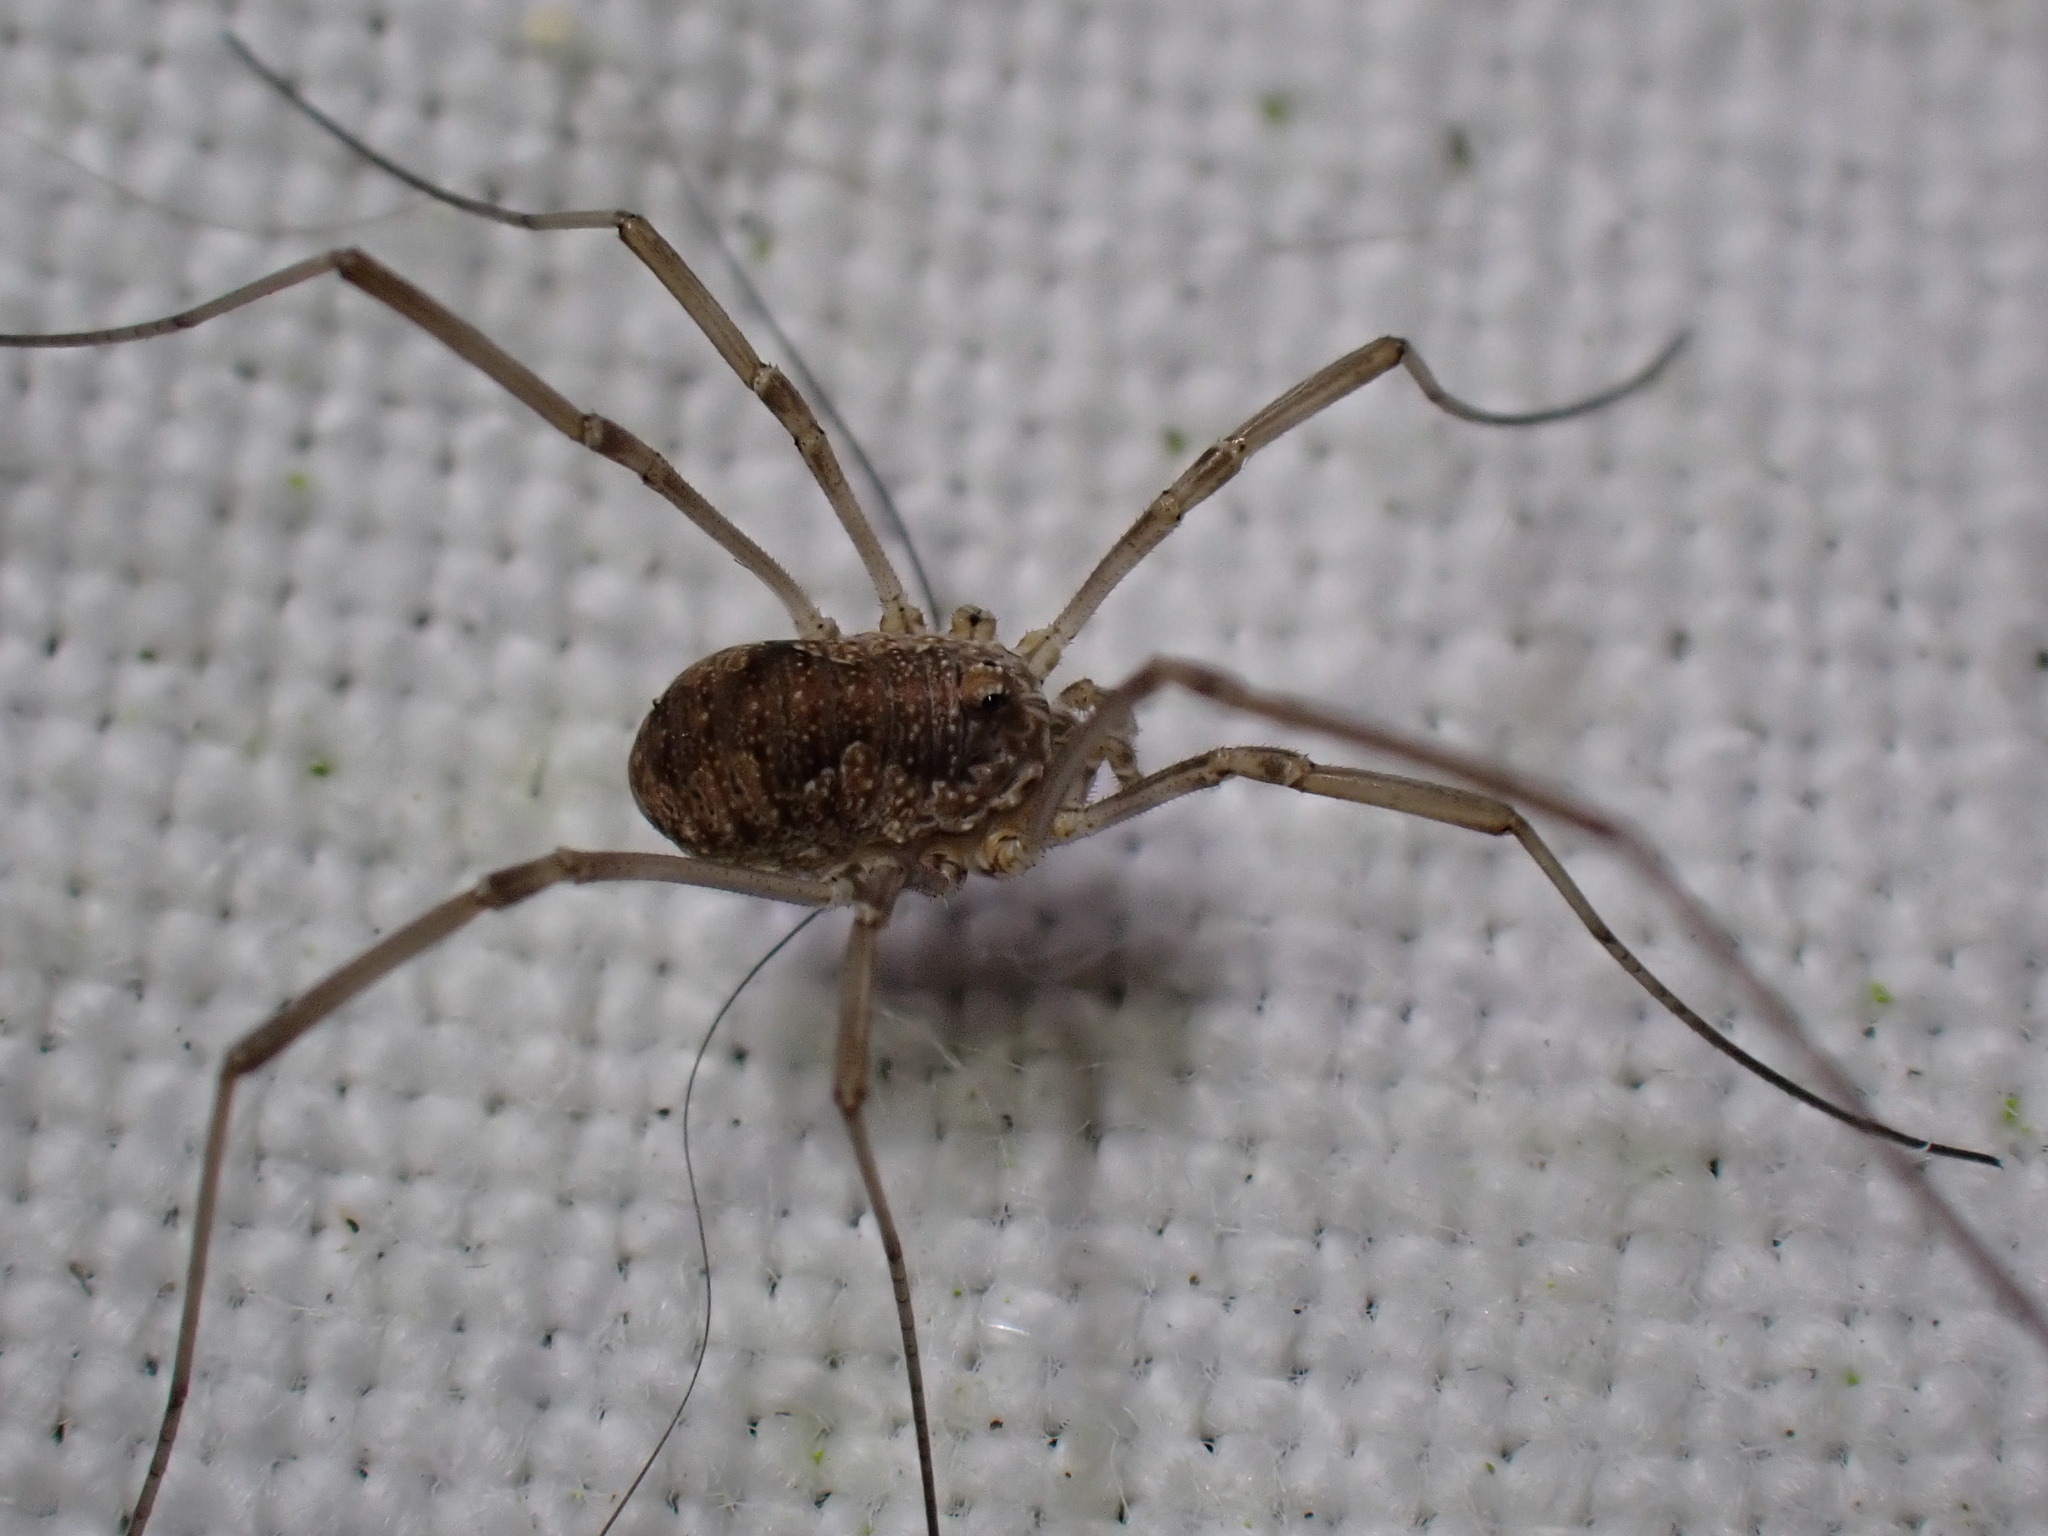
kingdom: Animalia
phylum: Arthropoda
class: Arachnida
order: Opiliones
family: Phalangiidae
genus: Phalangium
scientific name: Phalangium opilio
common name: Daddy longleg
